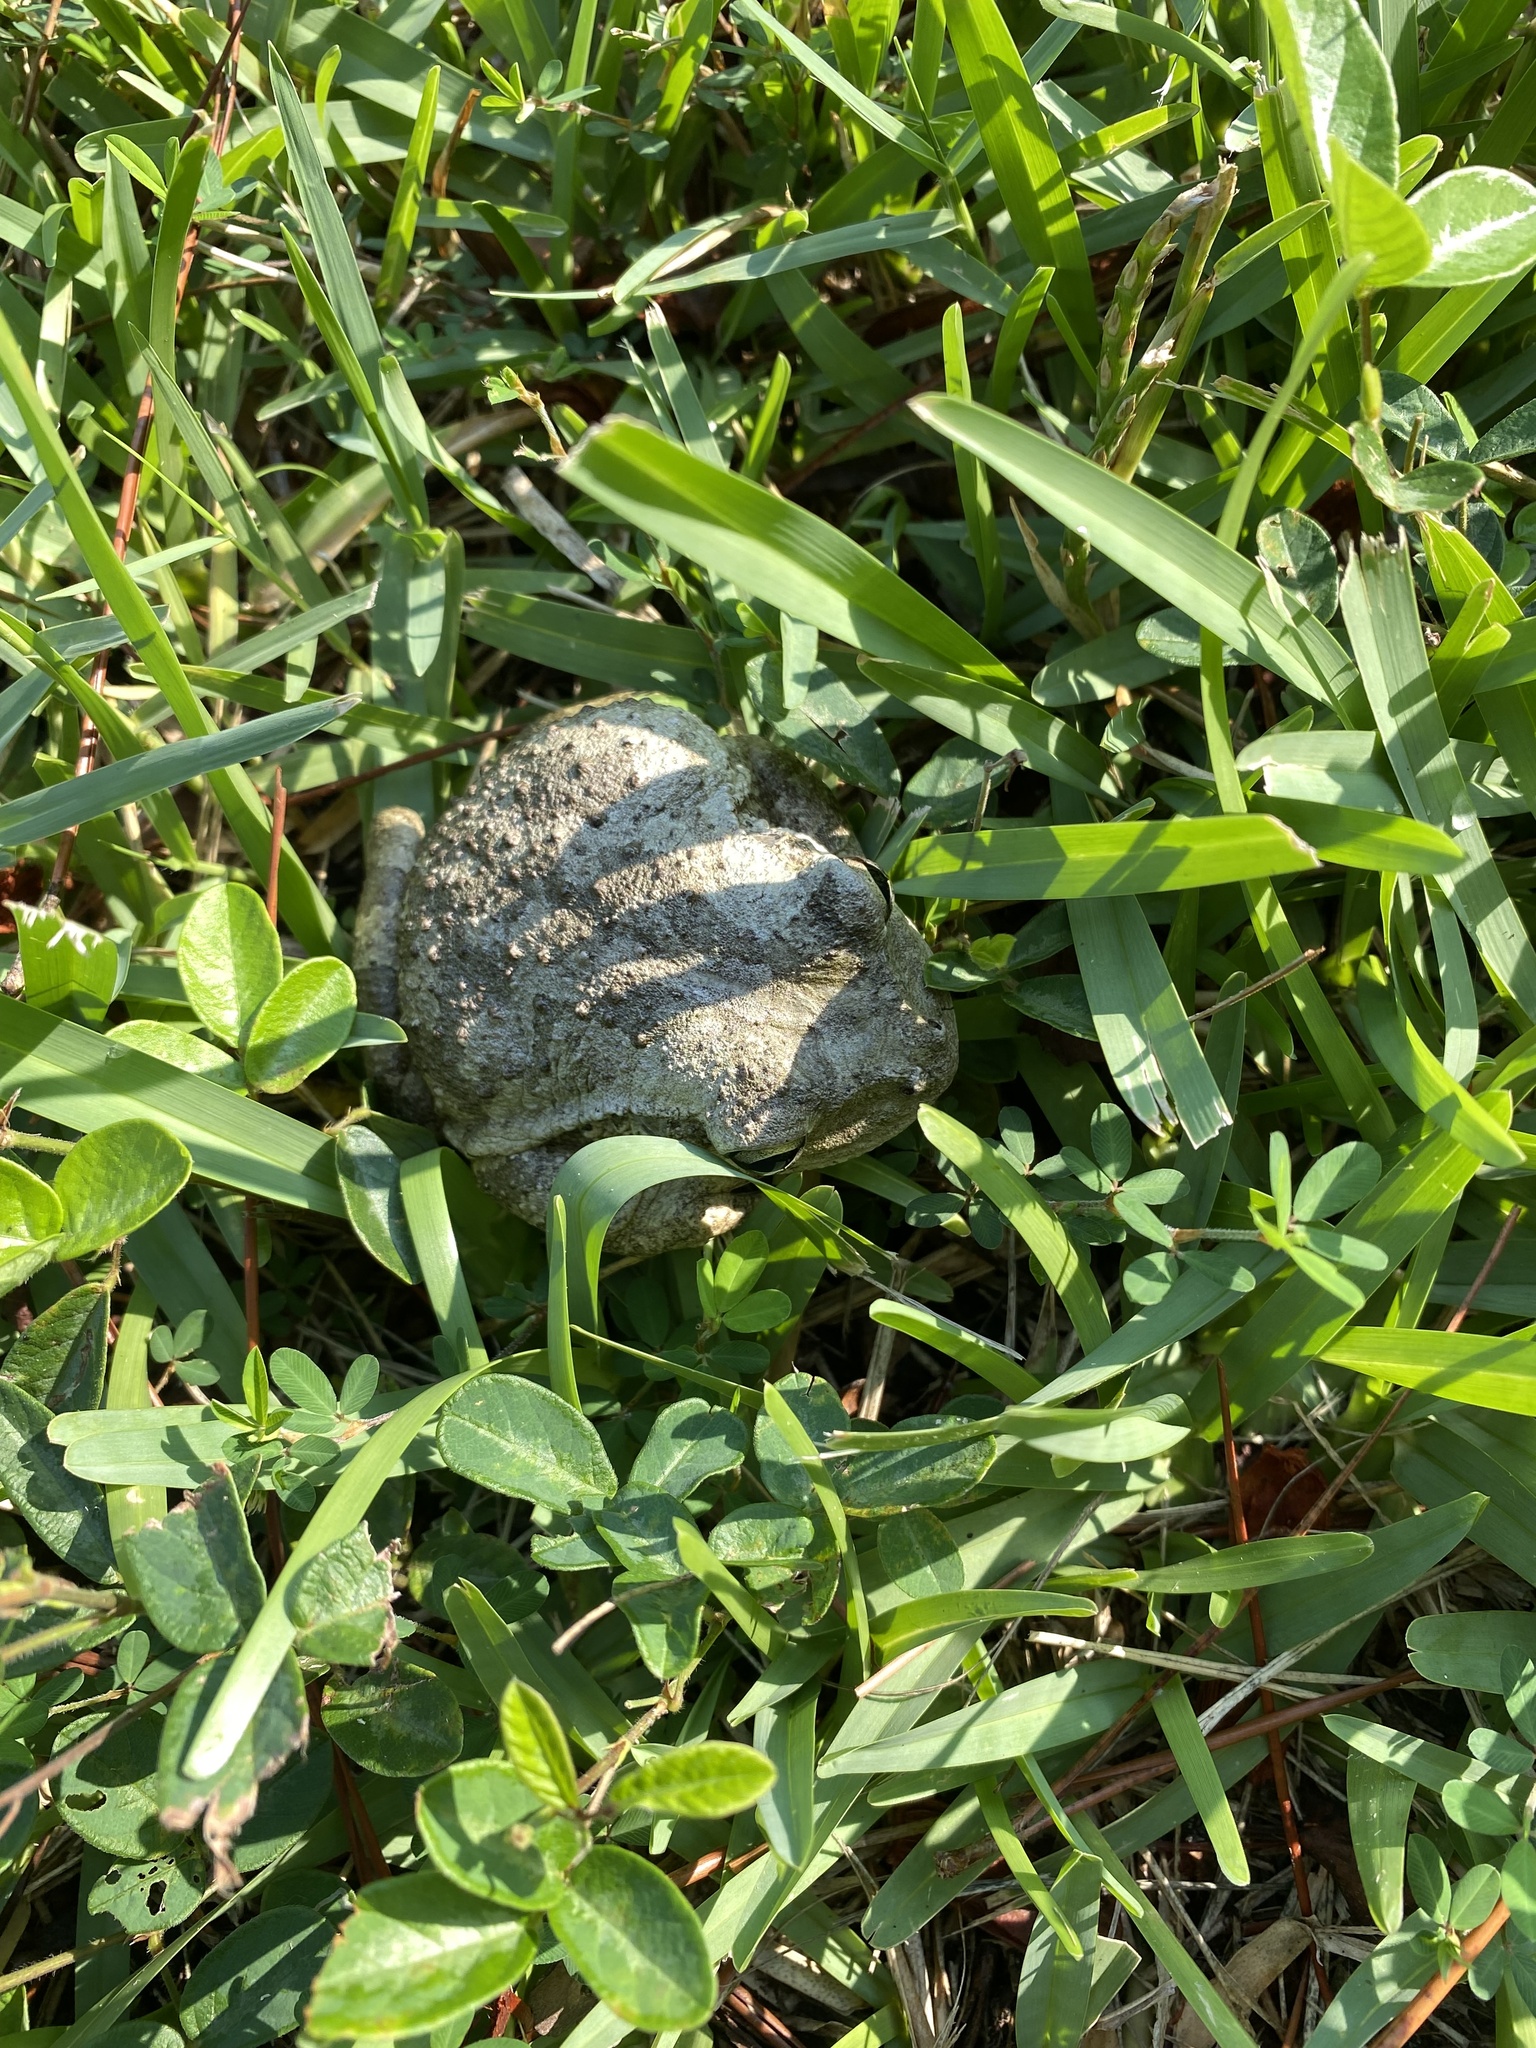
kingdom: Animalia
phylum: Chordata
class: Amphibia
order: Anura
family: Hylidae
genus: Osteopilus
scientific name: Osteopilus septentrionalis
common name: Cuban treefrog
